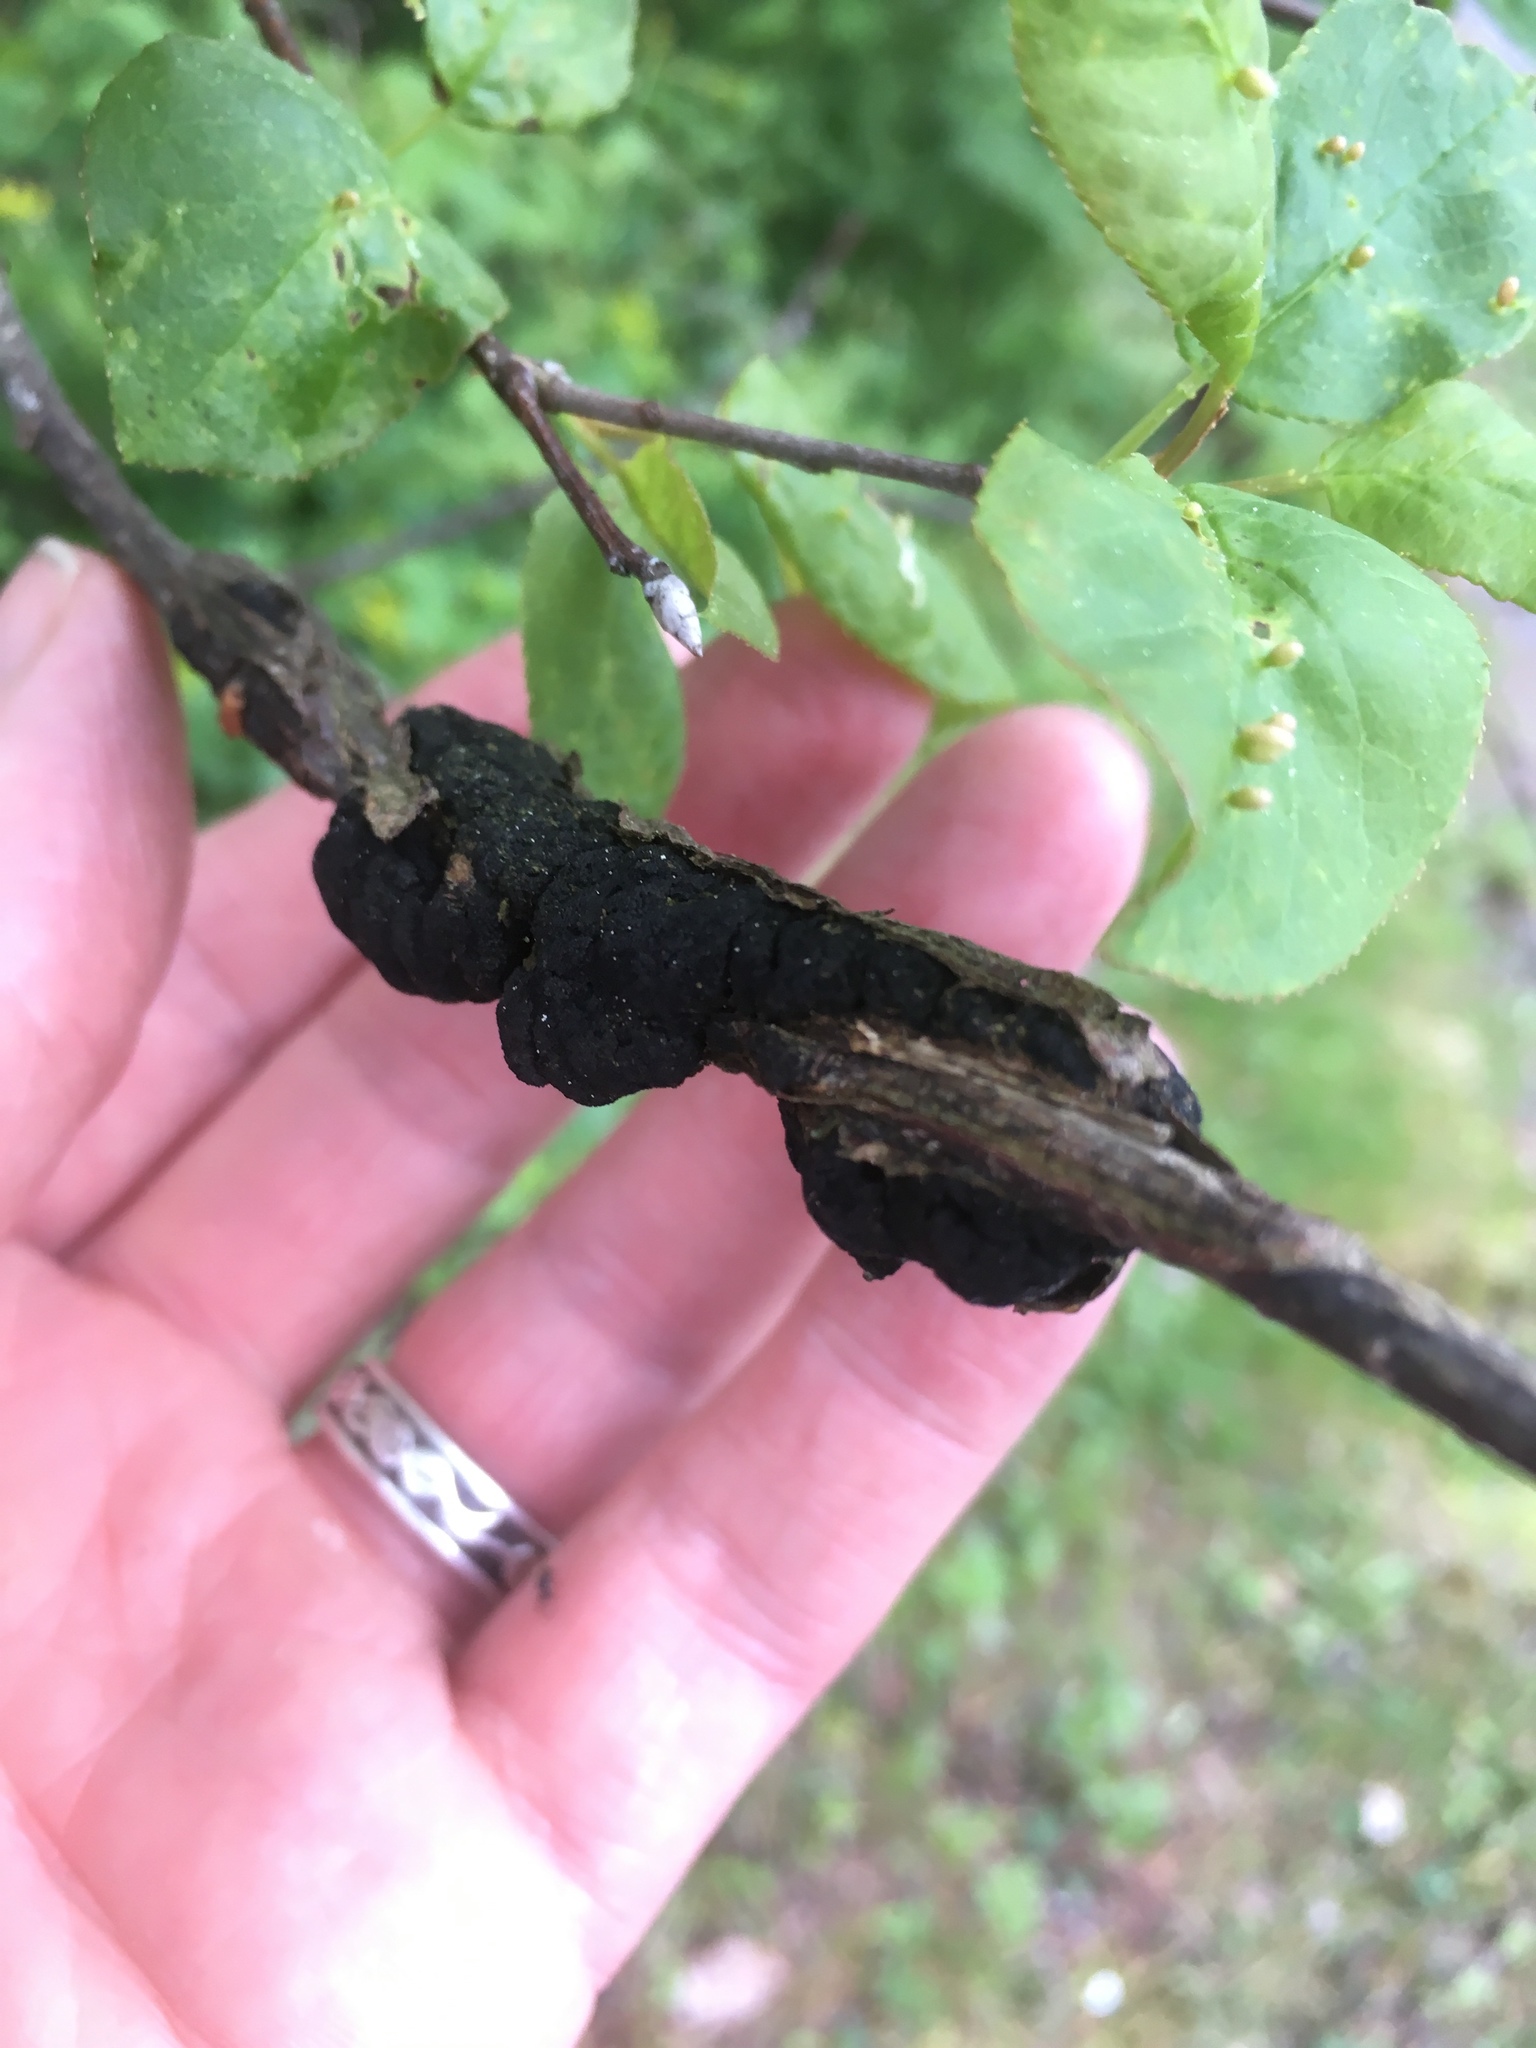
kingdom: Fungi
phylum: Ascomycota
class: Dothideomycetes
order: Venturiales
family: Venturiaceae
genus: Apiosporina
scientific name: Apiosporina morbosa
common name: Black knot
